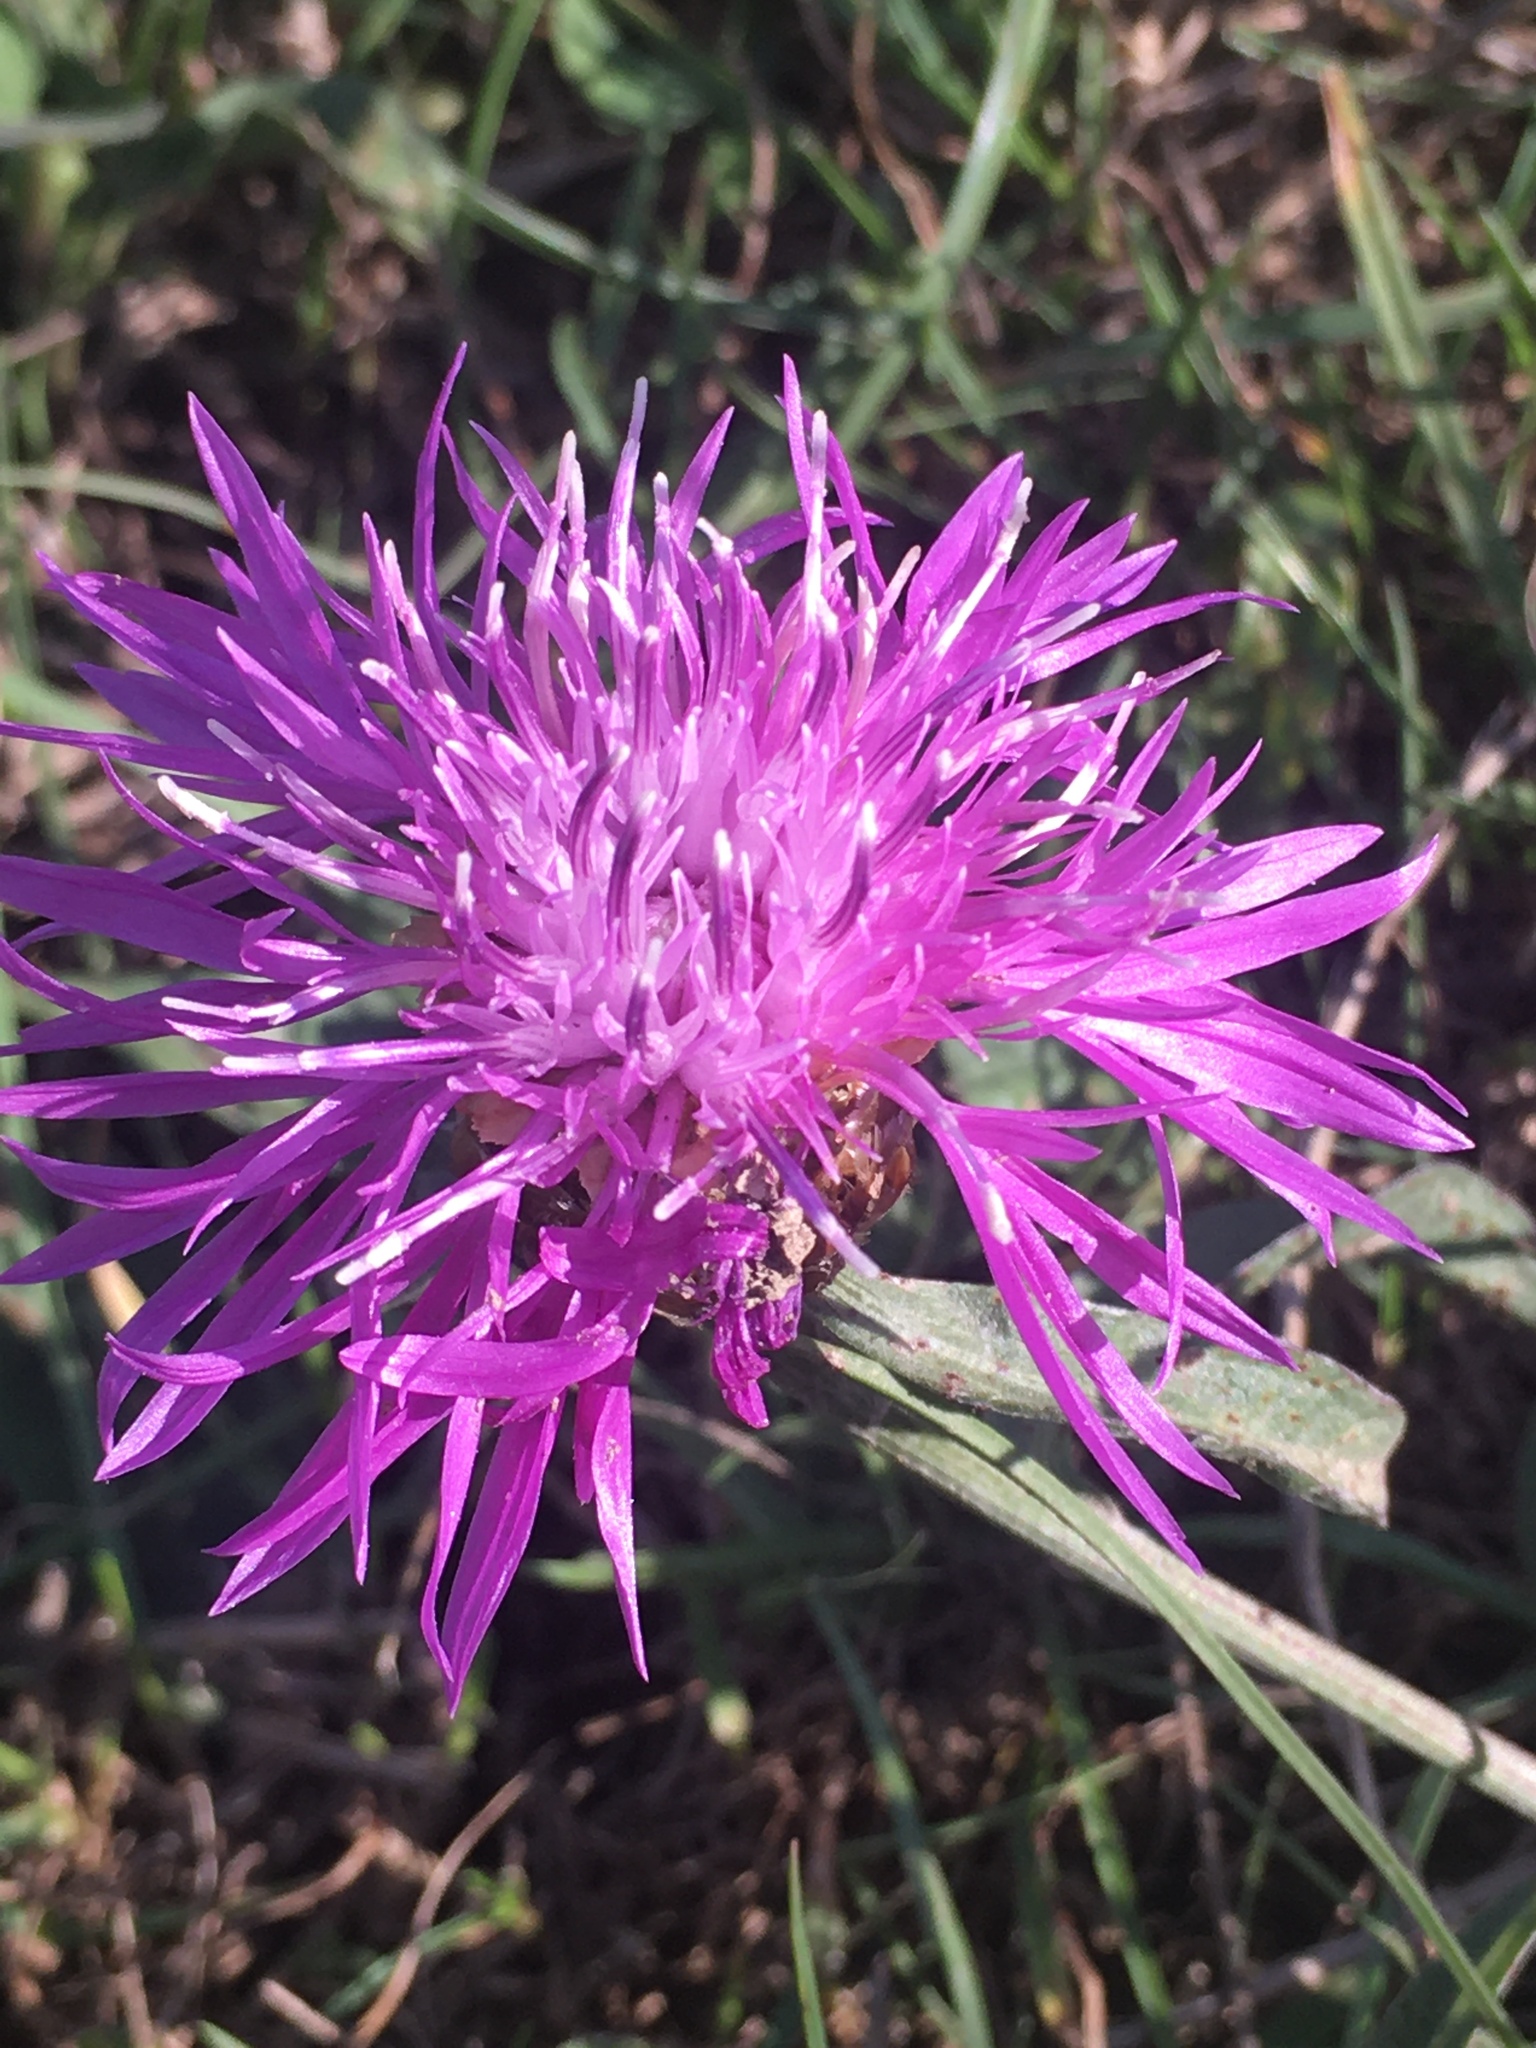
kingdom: Plantae
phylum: Tracheophyta
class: Magnoliopsida
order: Asterales
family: Asteraceae
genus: Centaurea
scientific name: Centaurea jacea
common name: Brown knapweed
